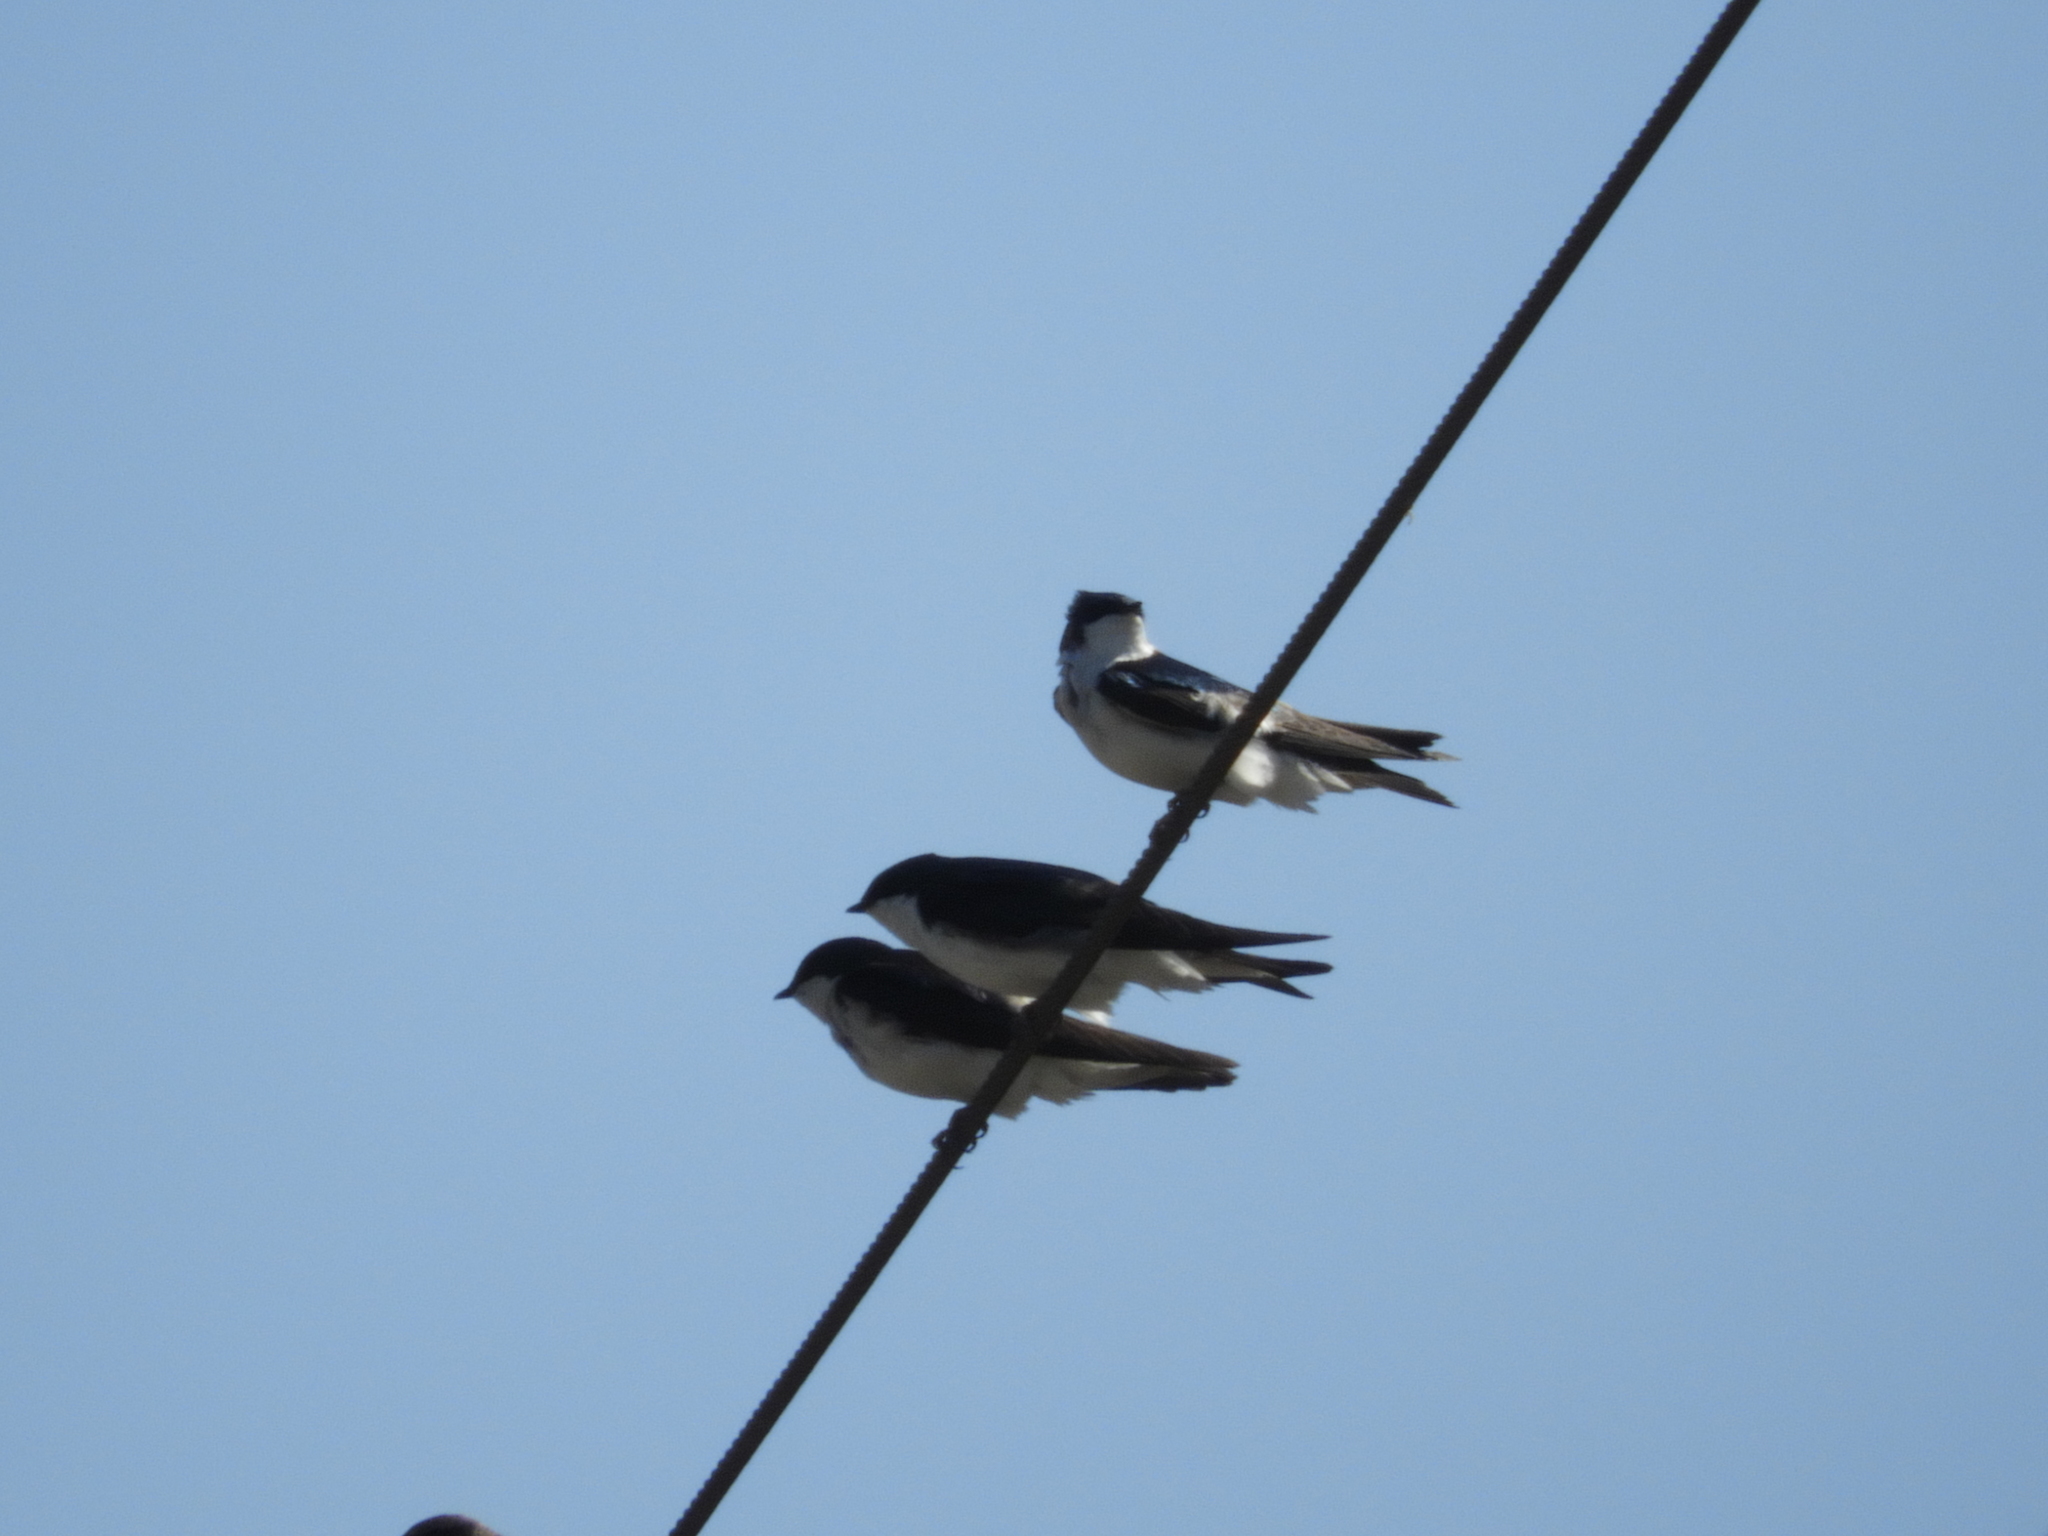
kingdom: Animalia
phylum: Chordata
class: Aves
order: Passeriformes
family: Hirundinidae
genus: Tachycineta
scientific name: Tachycineta bicolor
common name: Tree swallow
